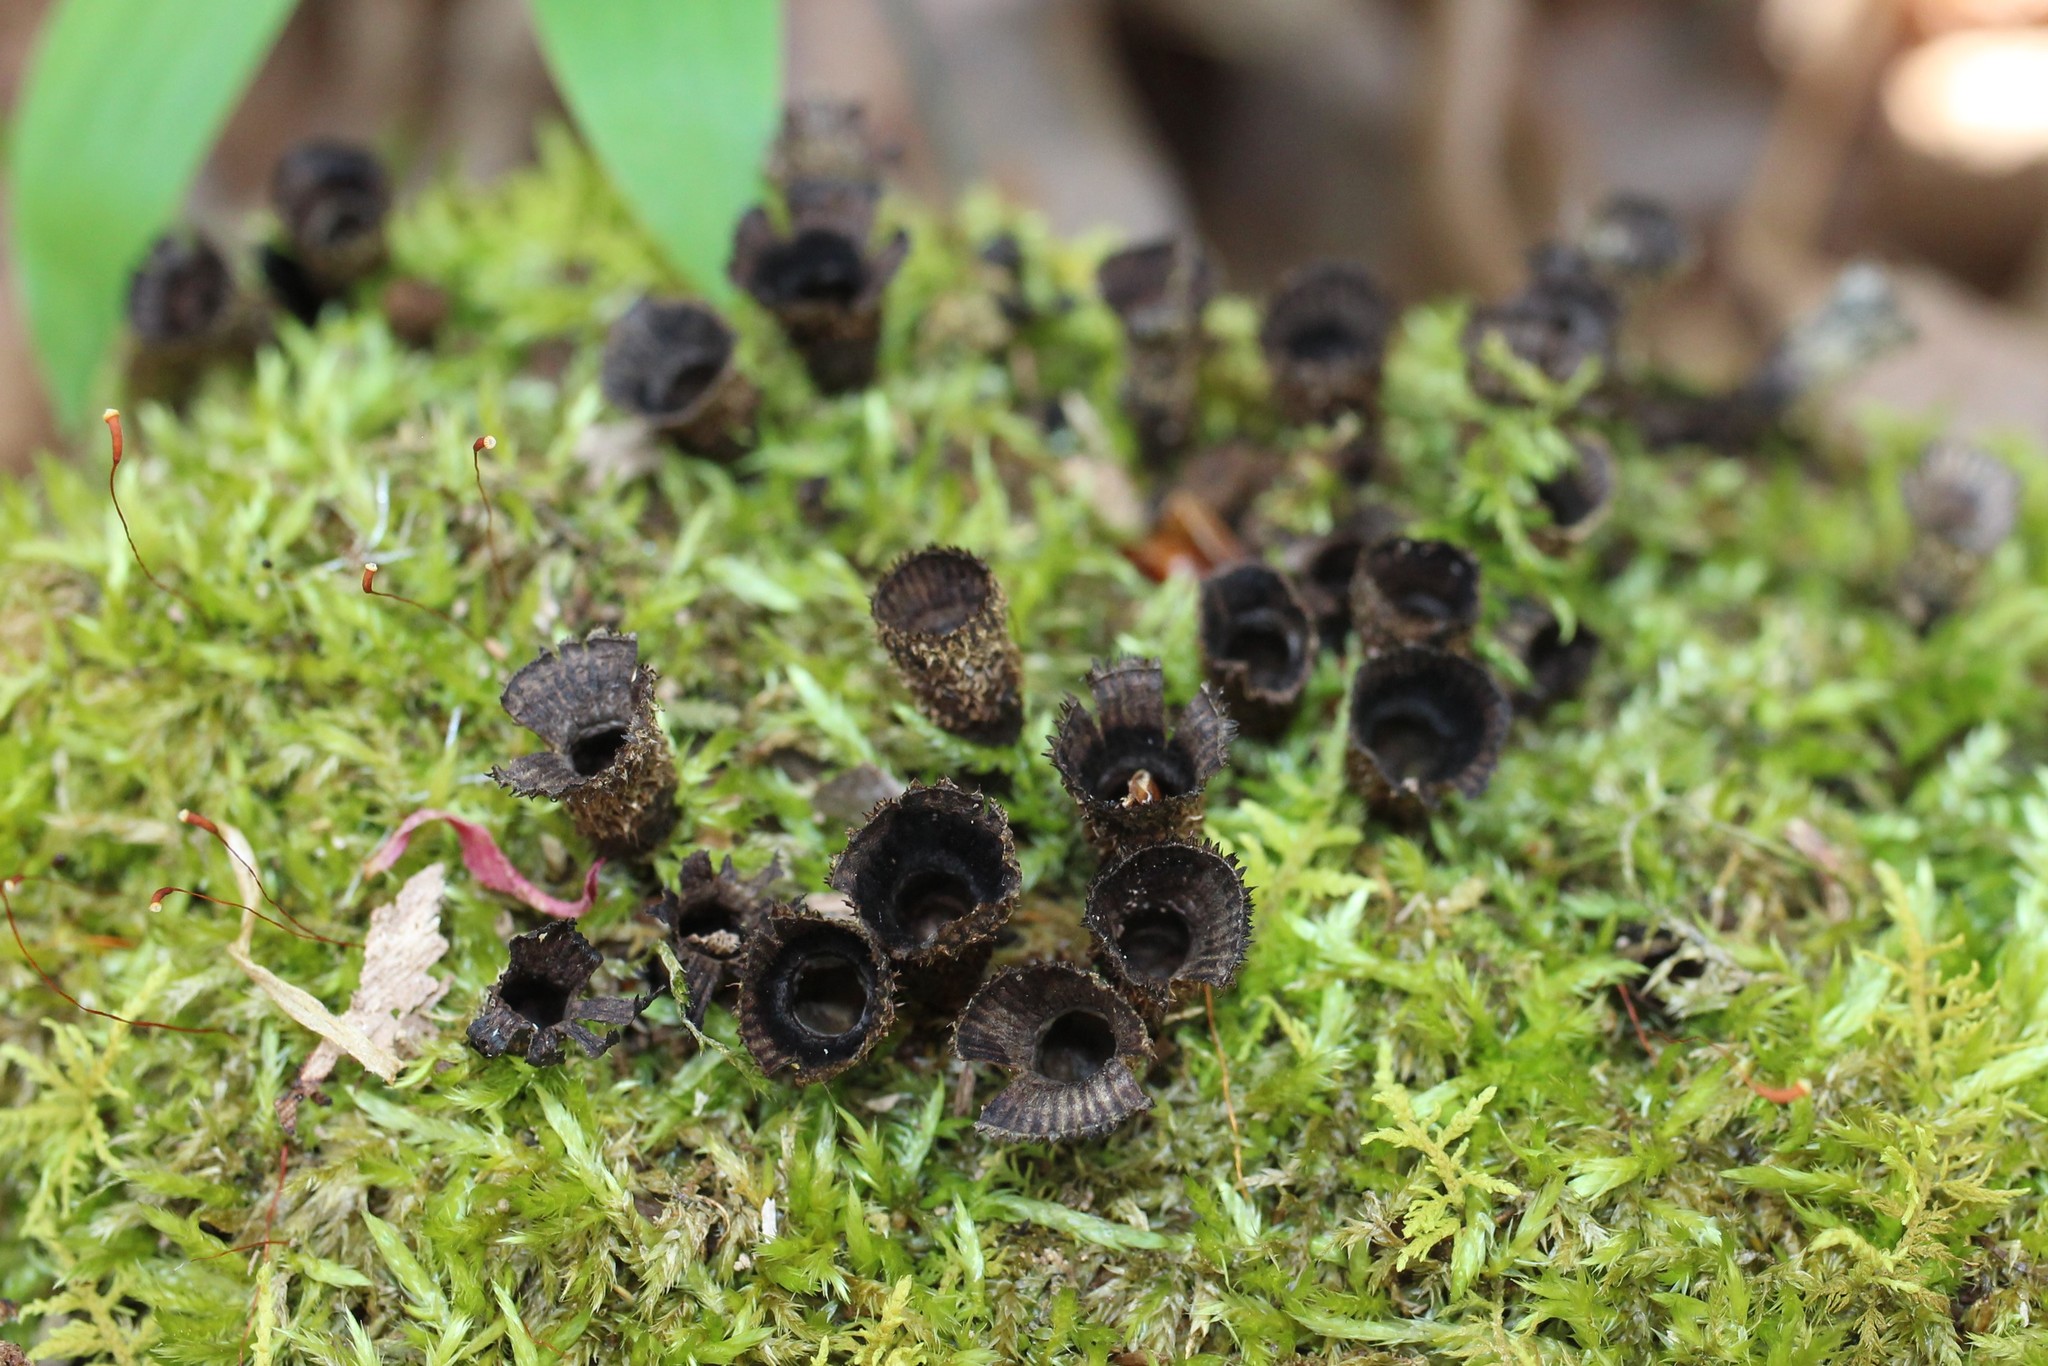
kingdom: Fungi
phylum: Basidiomycota
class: Agaricomycetes
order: Agaricales
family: Agaricaceae
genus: Cyathus
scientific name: Cyathus striatus
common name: Fluted bird's nest
